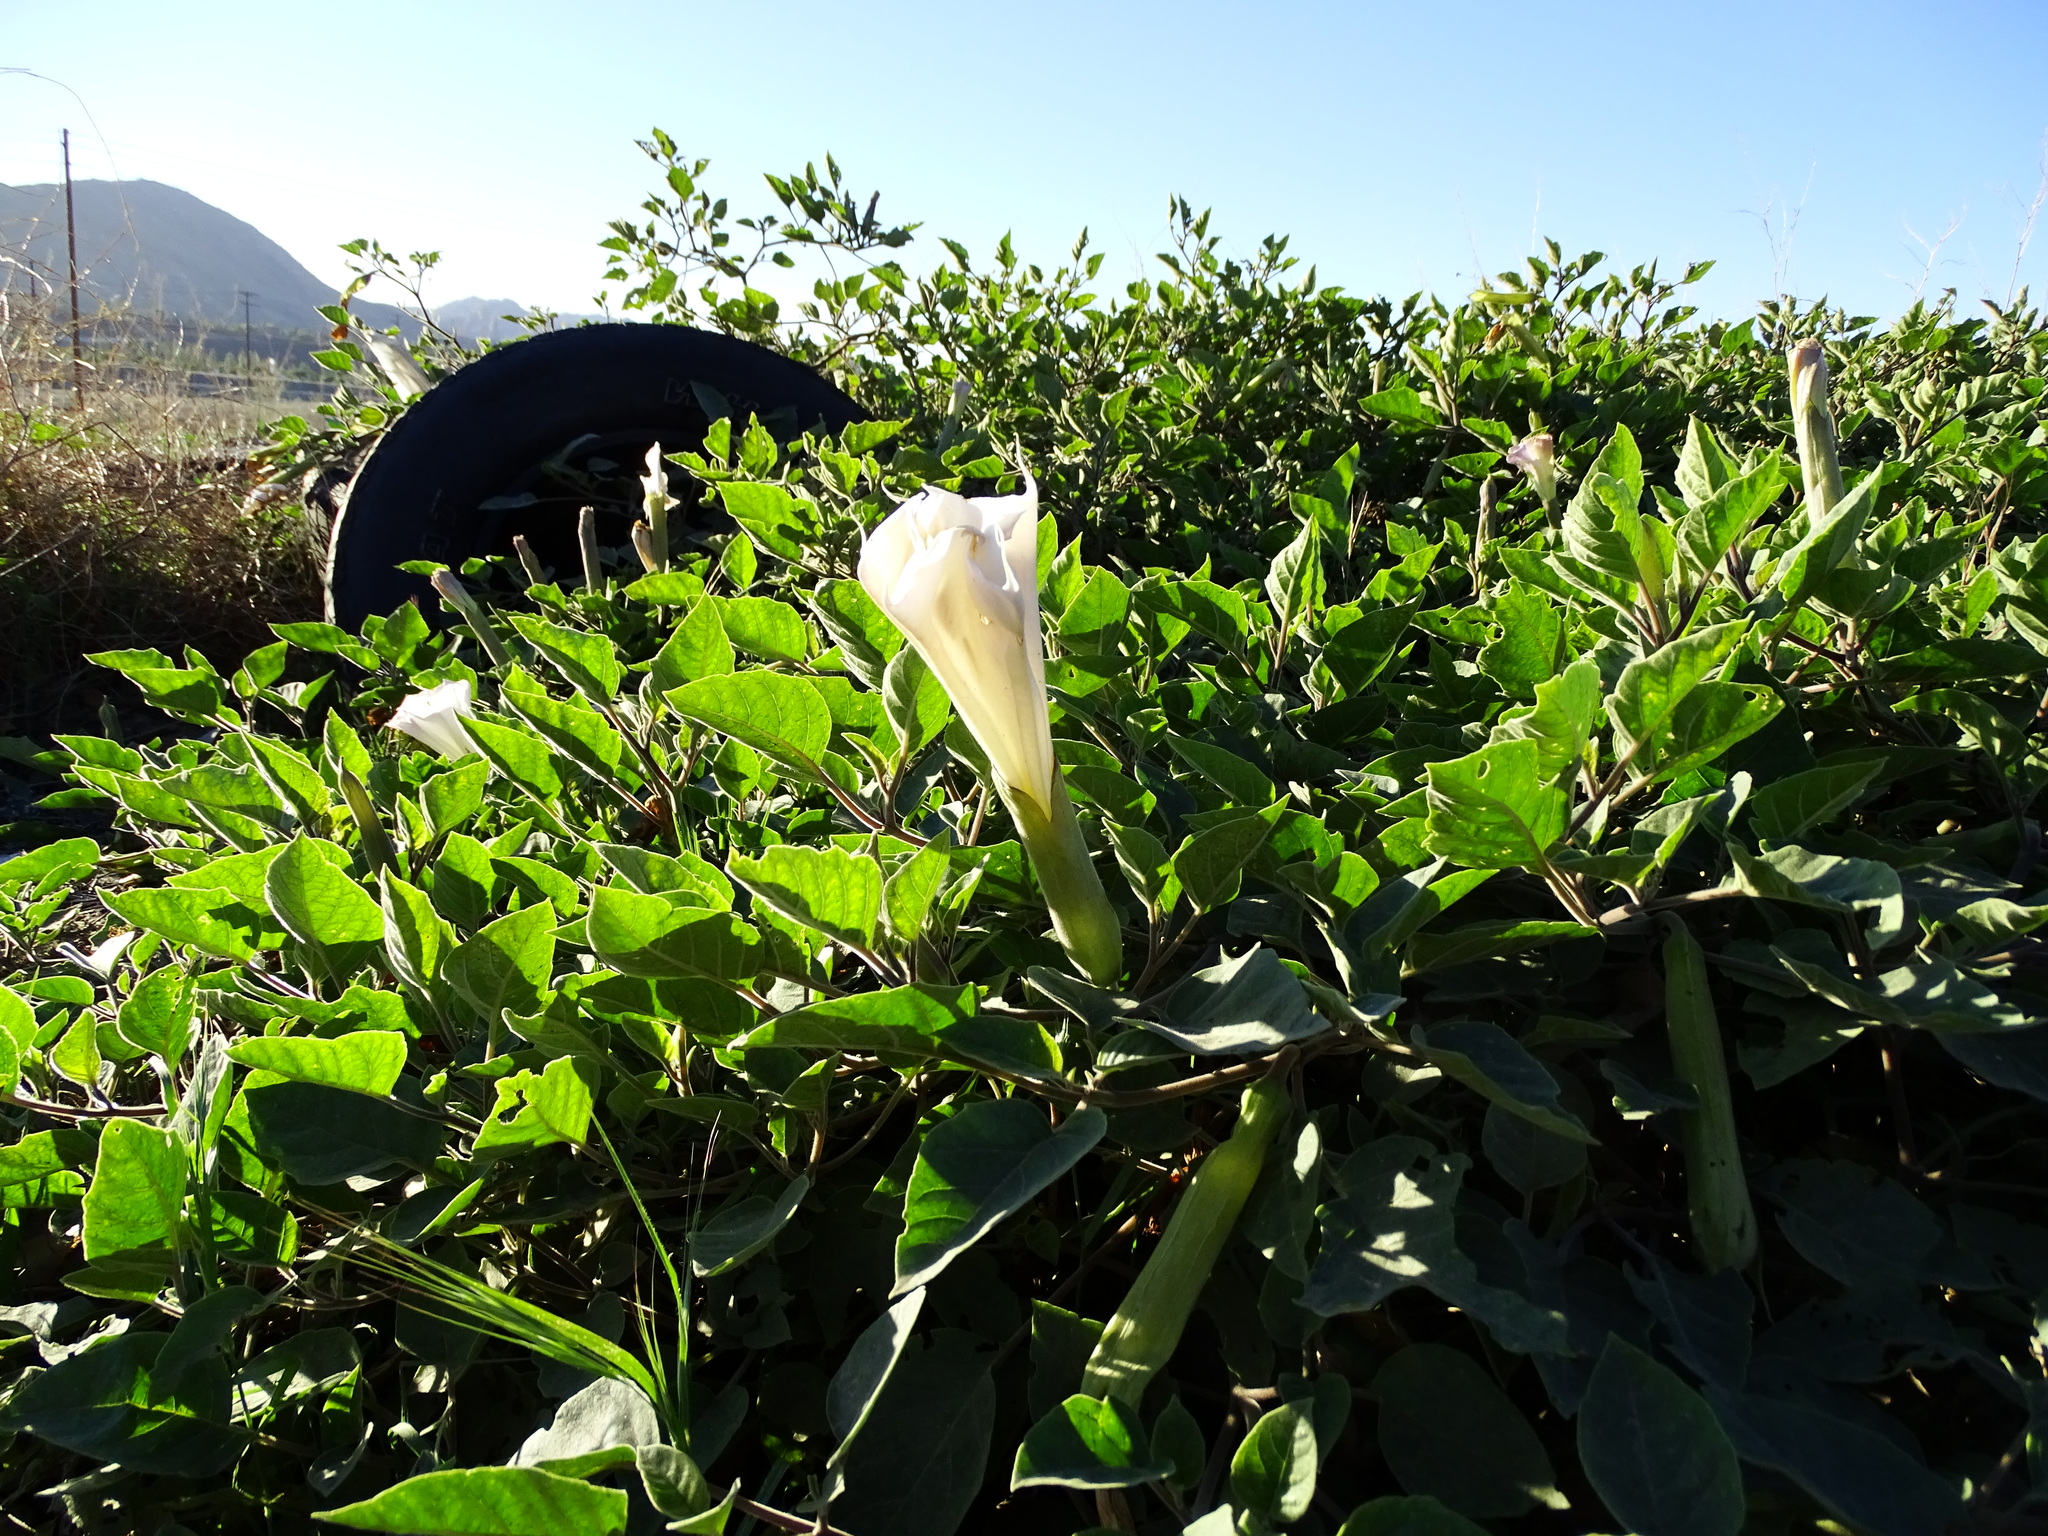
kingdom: Plantae
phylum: Tracheophyta
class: Magnoliopsida
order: Solanales
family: Solanaceae
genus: Datura
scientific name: Datura wrightii
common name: Sacred thorn-apple
